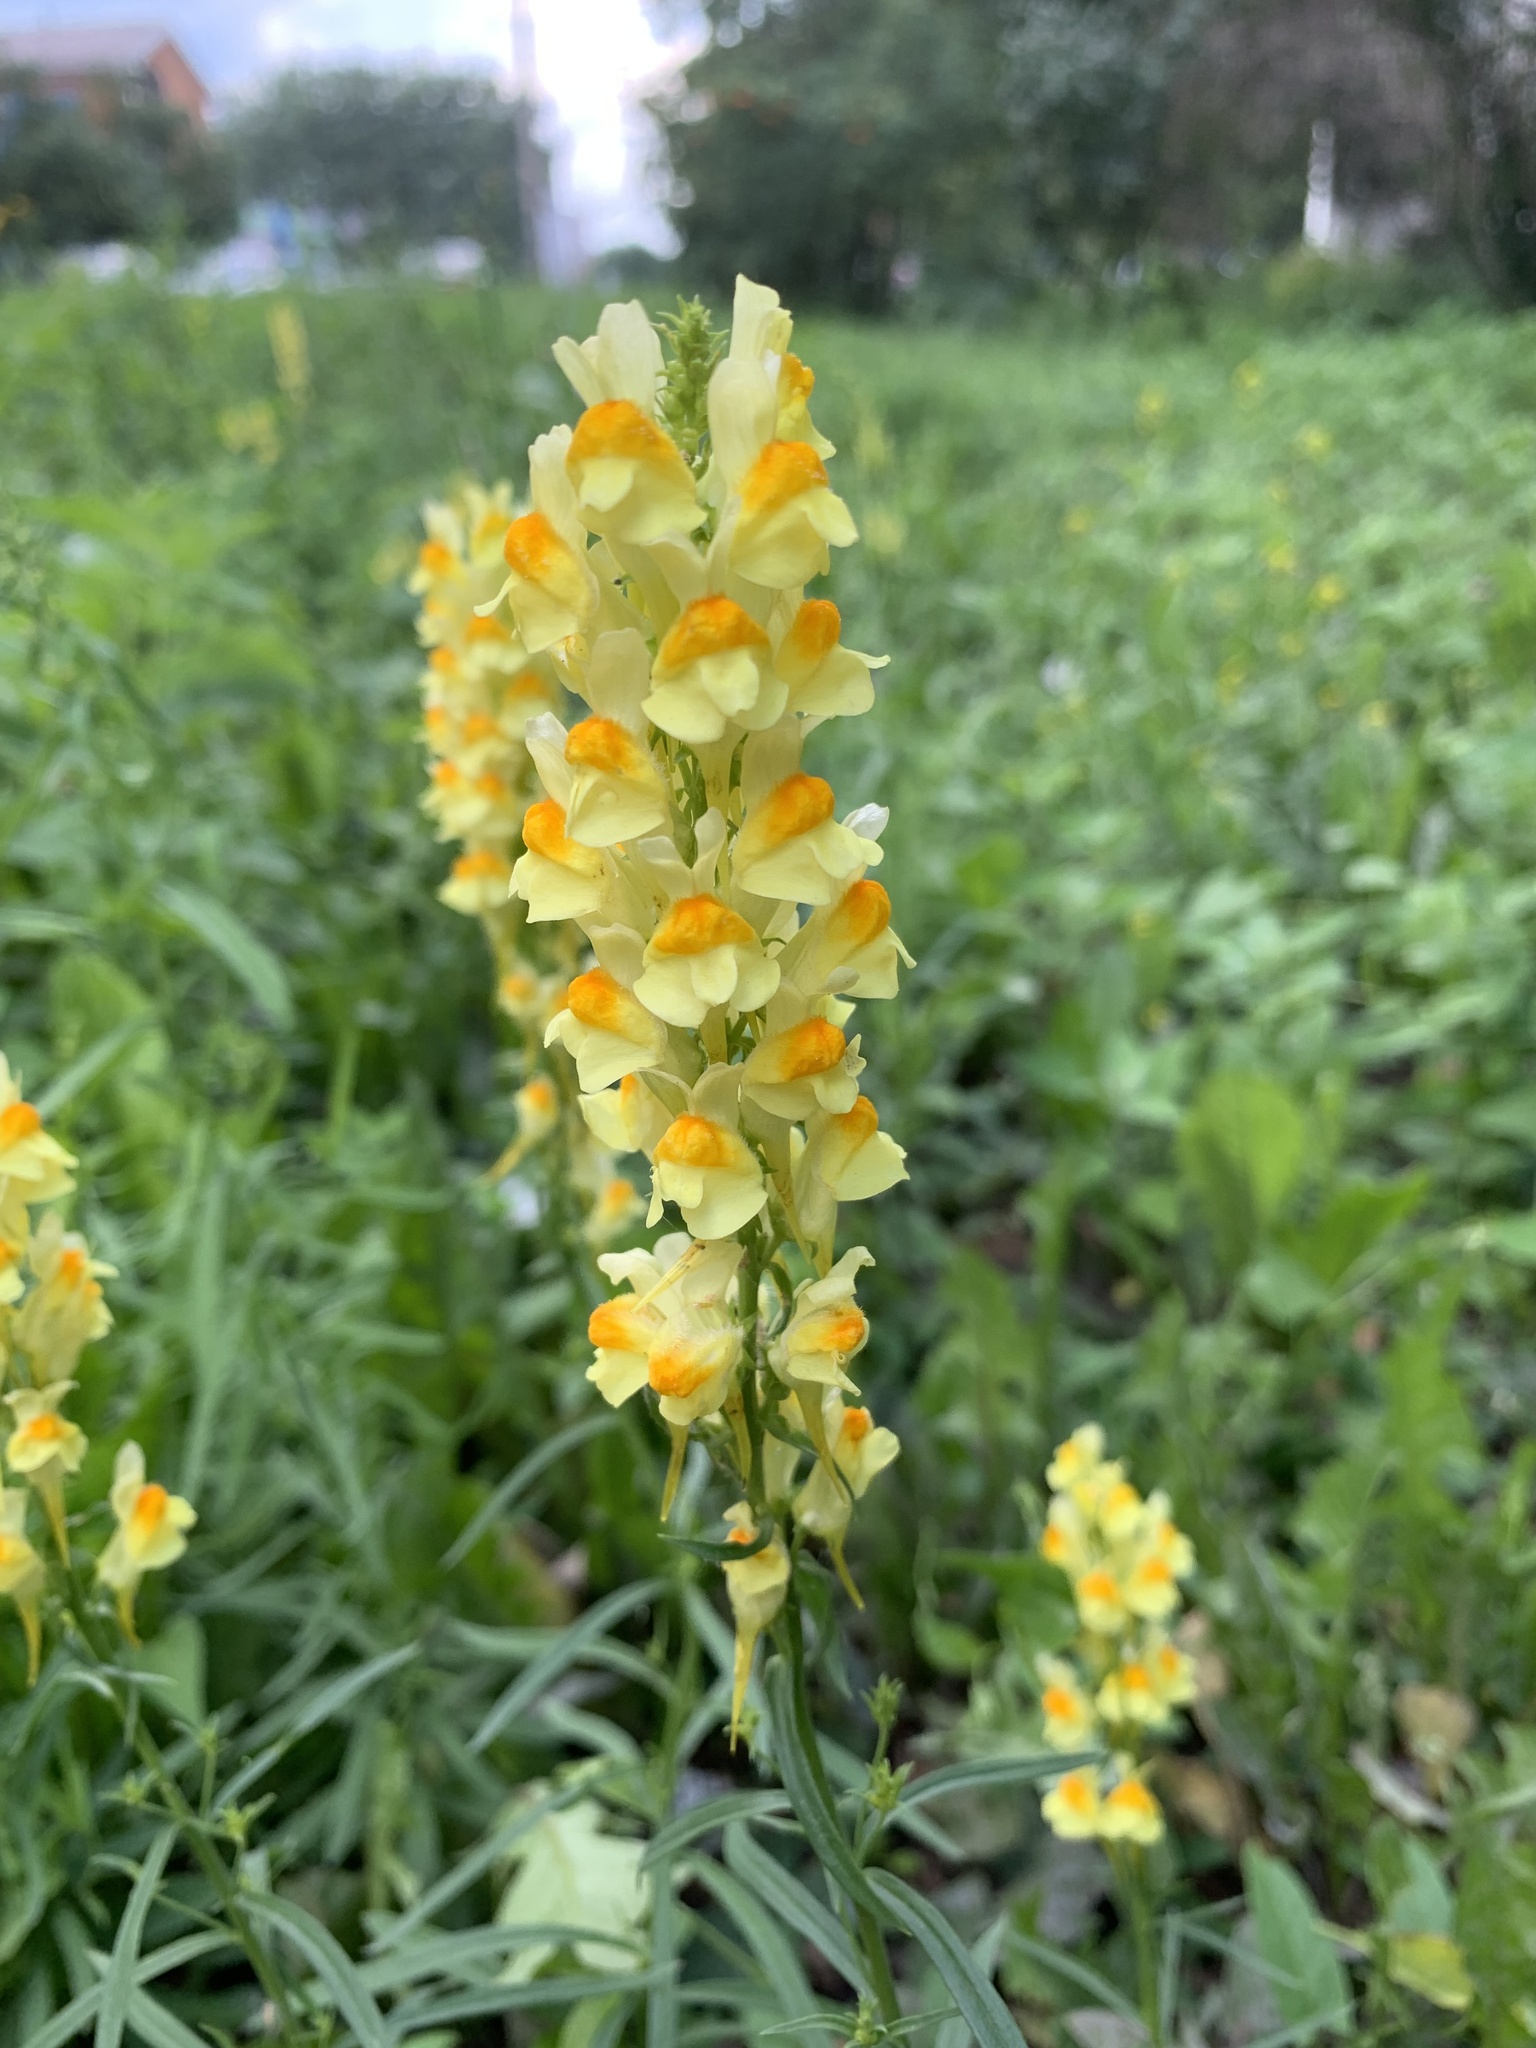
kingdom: Plantae
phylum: Tracheophyta
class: Magnoliopsida
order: Lamiales
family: Plantaginaceae
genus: Linaria
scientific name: Linaria vulgaris
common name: Butter and eggs
